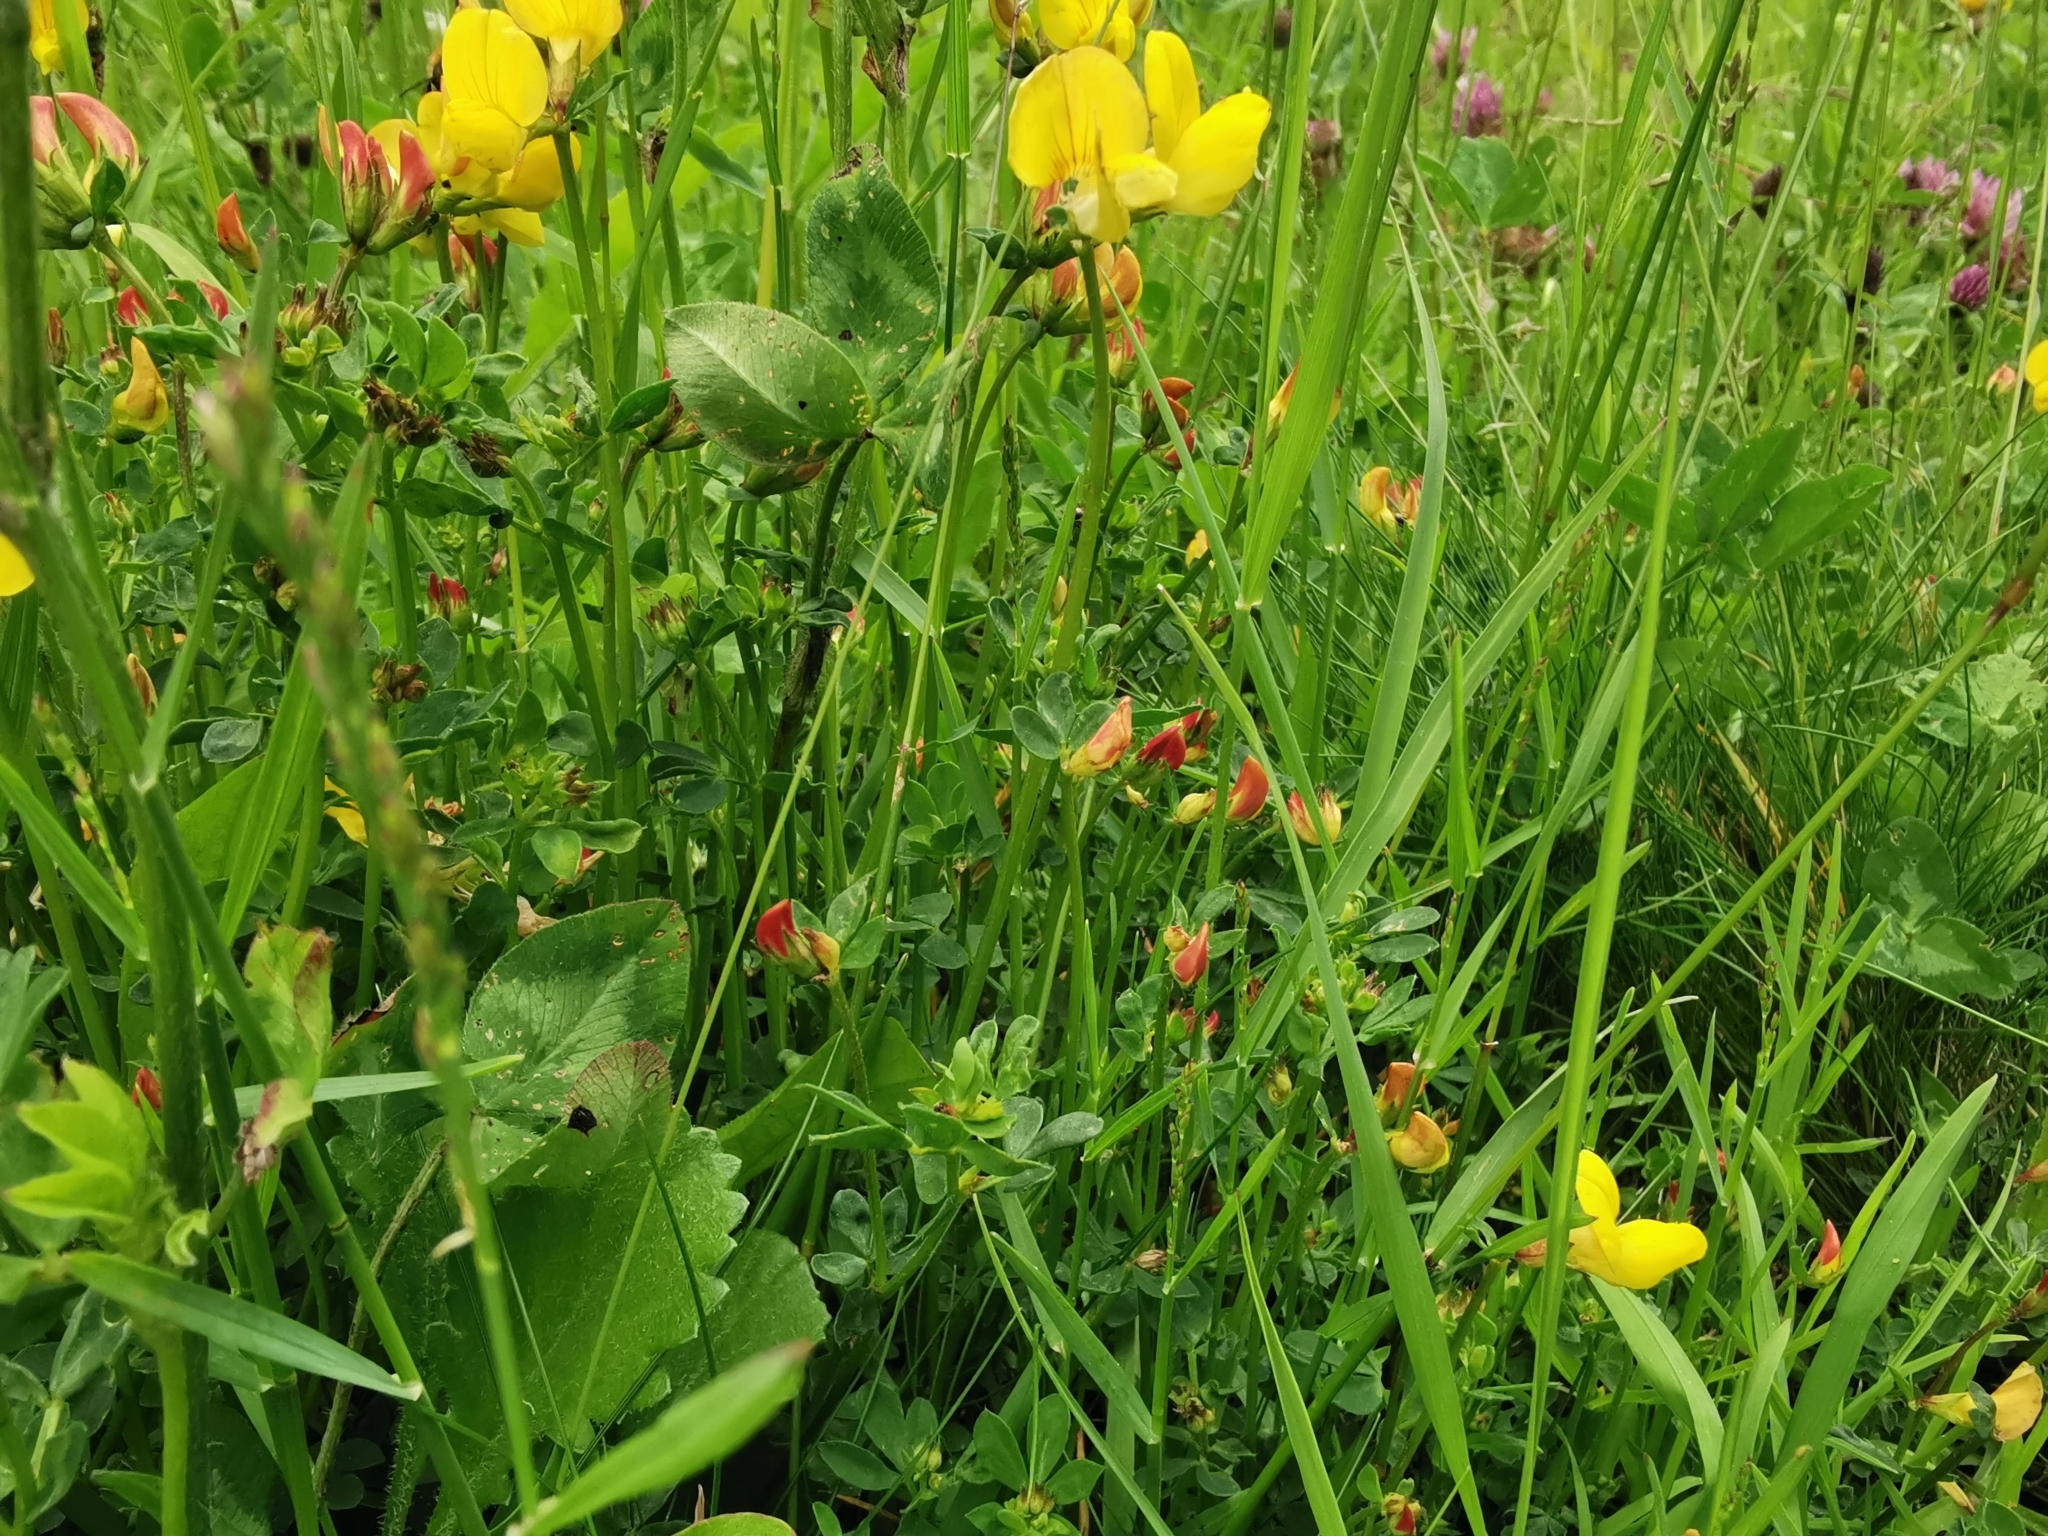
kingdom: Plantae
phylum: Tracheophyta
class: Magnoliopsida
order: Fabales
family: Fabaceae
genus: Lotus
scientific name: Lotus corniculatus
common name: Common bird's-foot-trefoil
